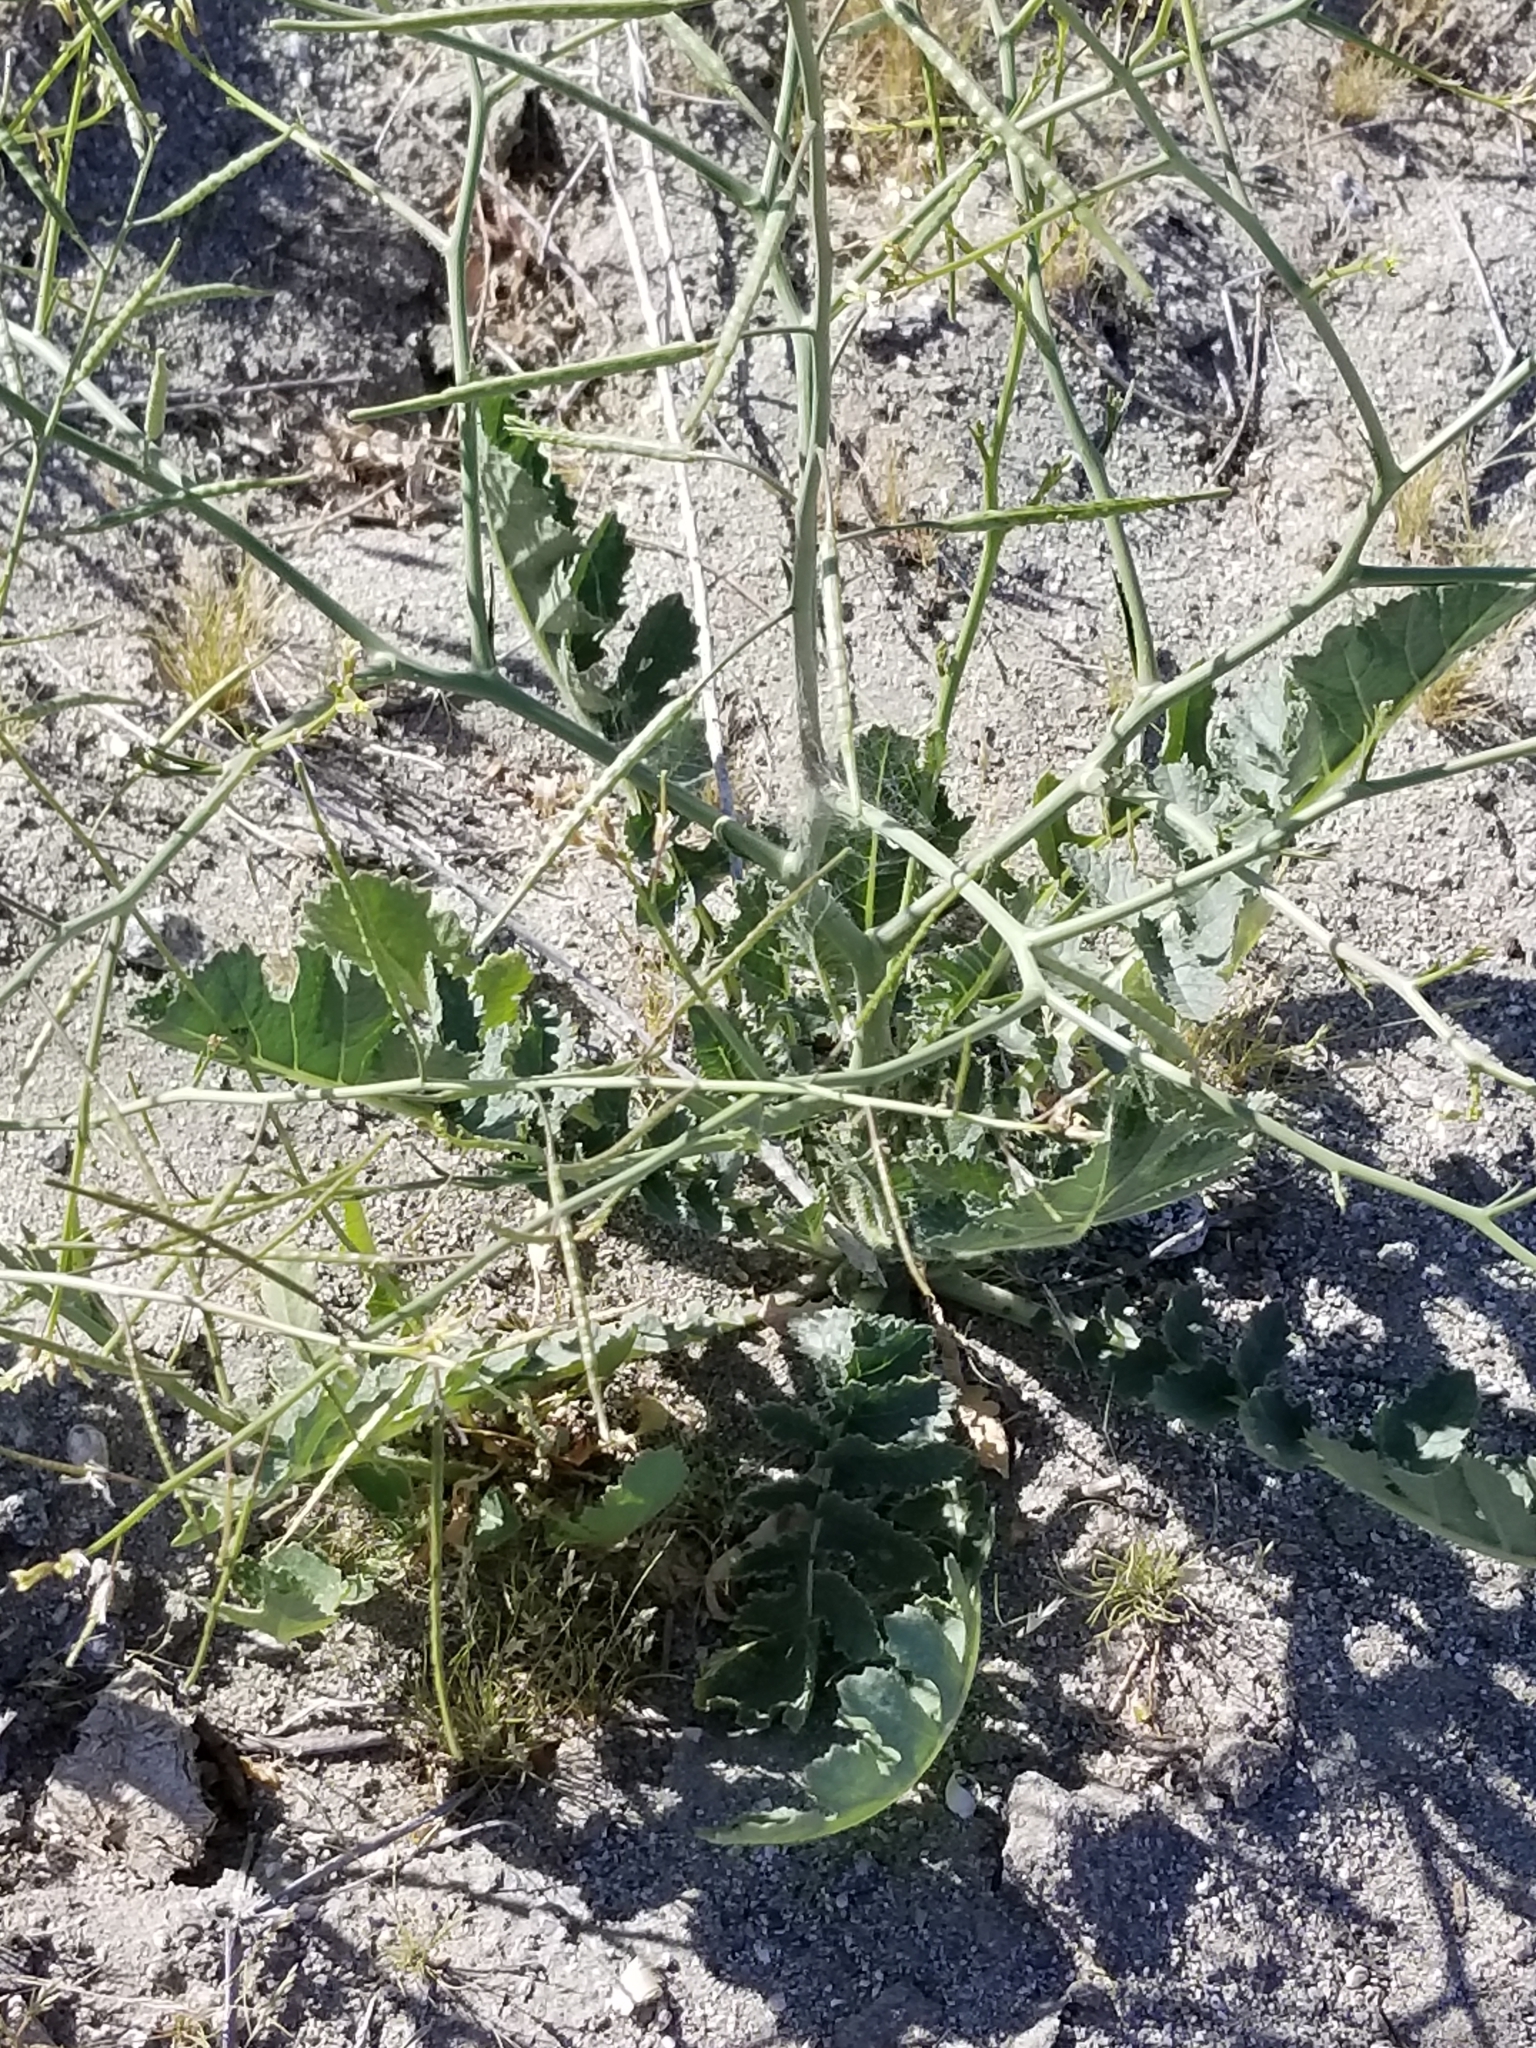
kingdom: Plantae
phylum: Tracheophyta
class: Magnoliopsida
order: Brassicales
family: Brassicaceae
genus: Brassica
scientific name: Brassica tournefortii
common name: Pale cabbage
